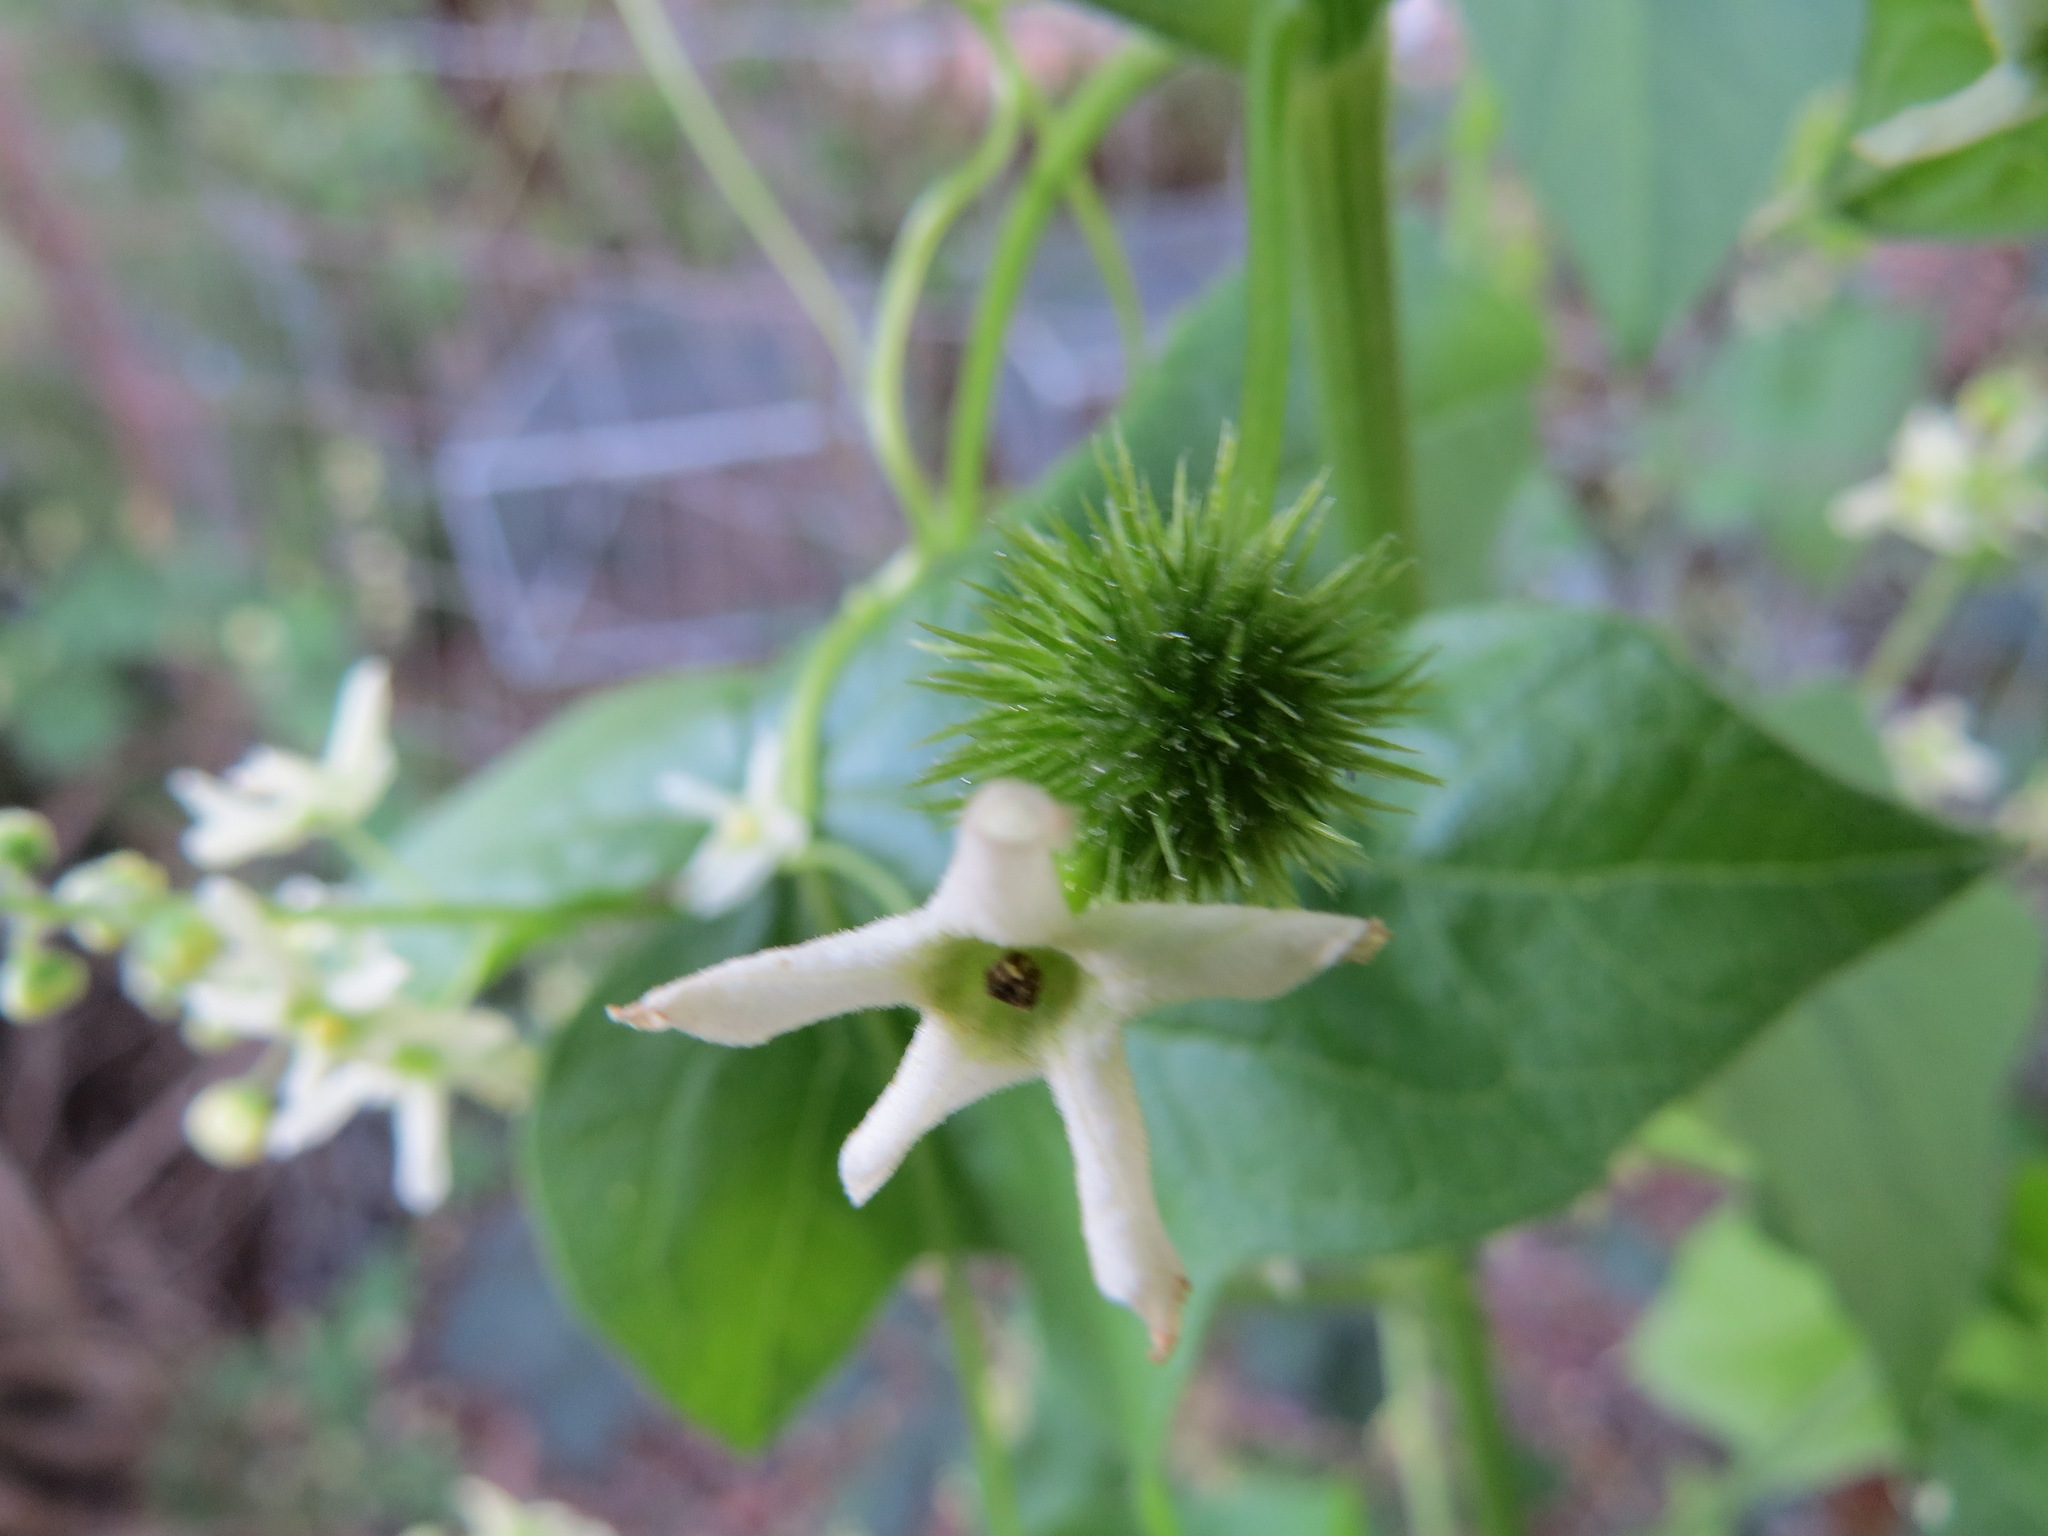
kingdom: Plantae
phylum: Tracheophyta
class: Magnoliopsida
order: Cucurbitales
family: Cucurbitaceae
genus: Marah
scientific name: Marah fabacea
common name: California manroot
